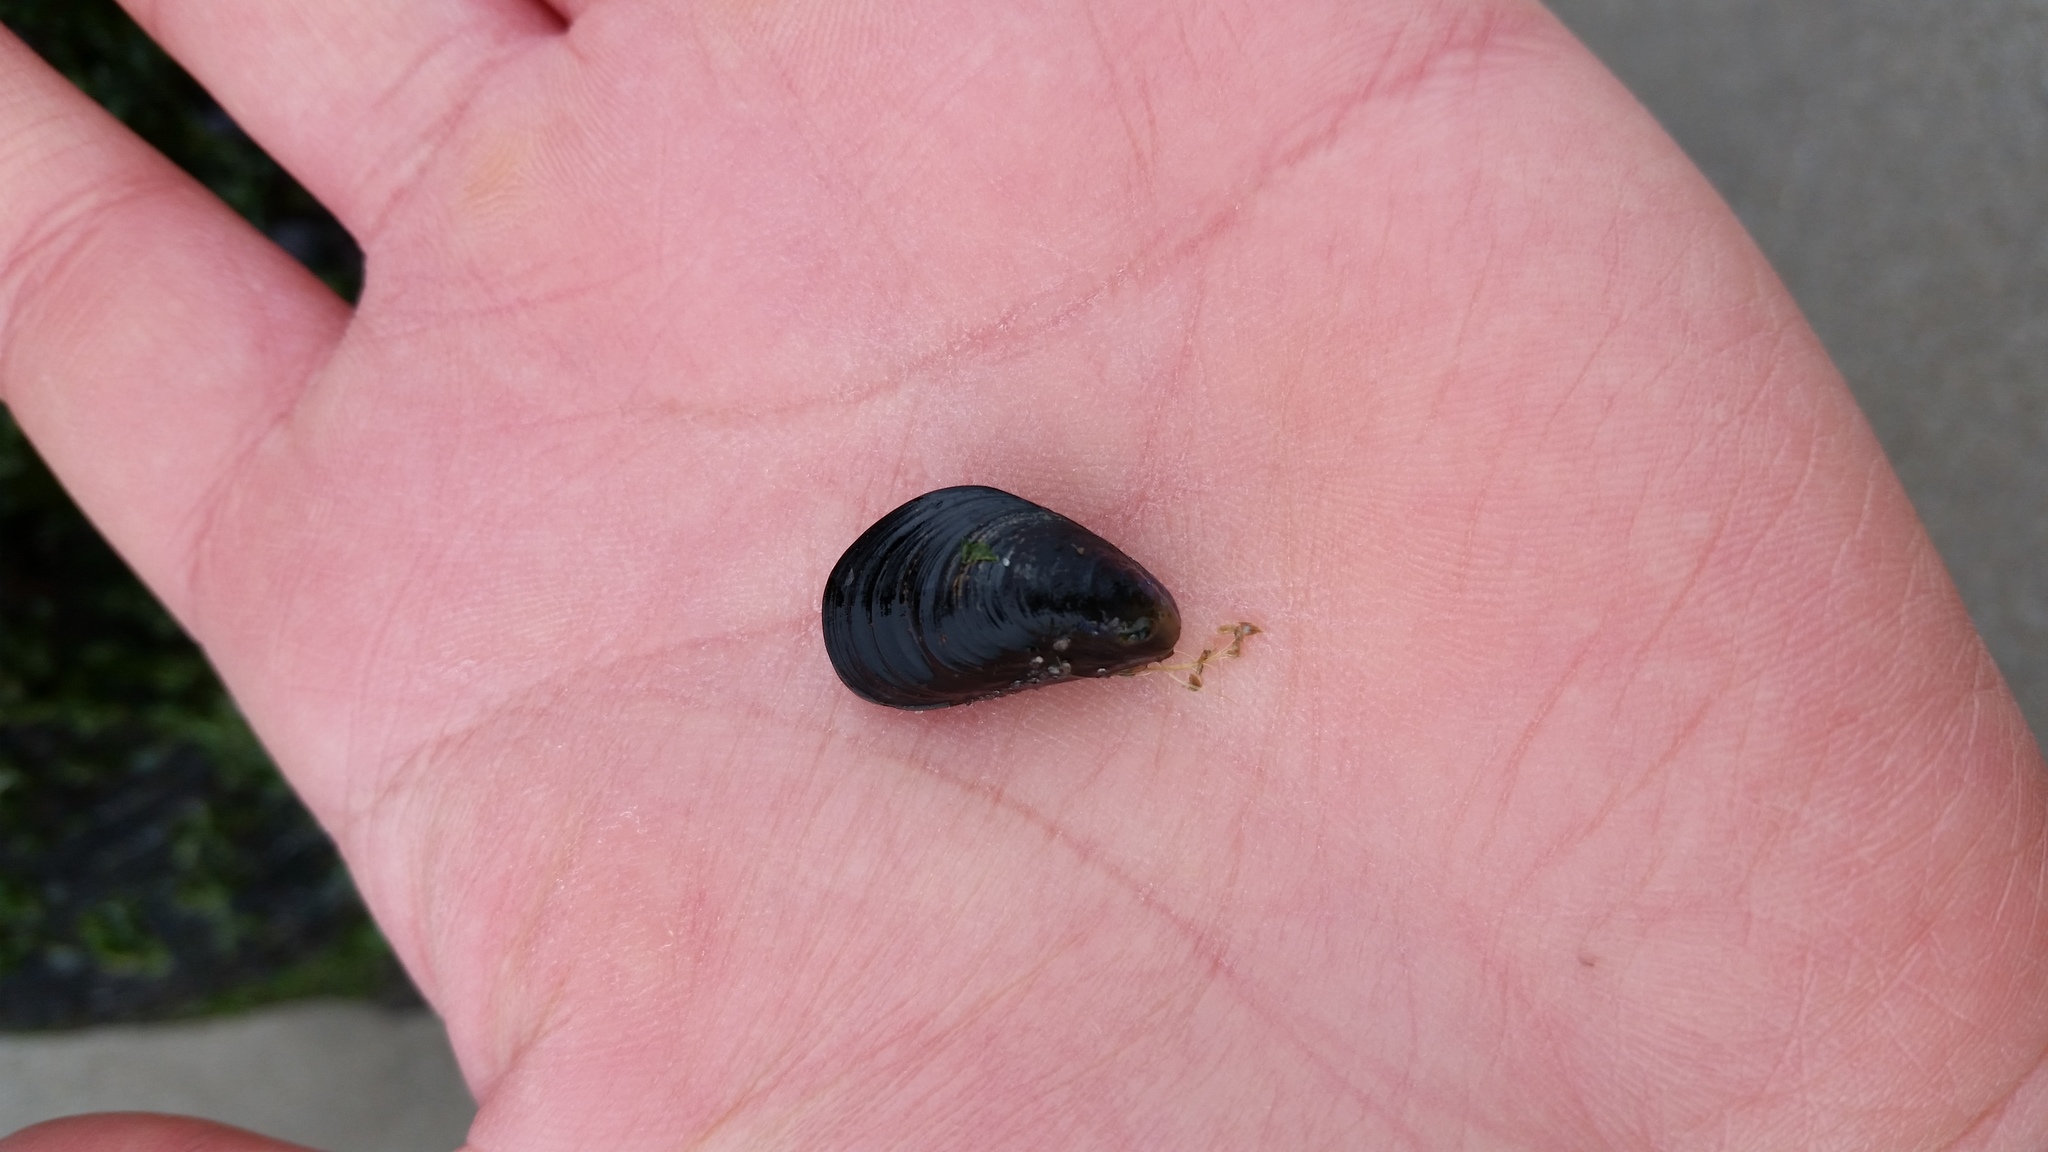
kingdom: Animalia
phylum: Mollusca
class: Bivalvia
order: Mytilida
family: Mytilidae
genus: Mytilus
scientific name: Mytilus edulis
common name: Blue mussel
